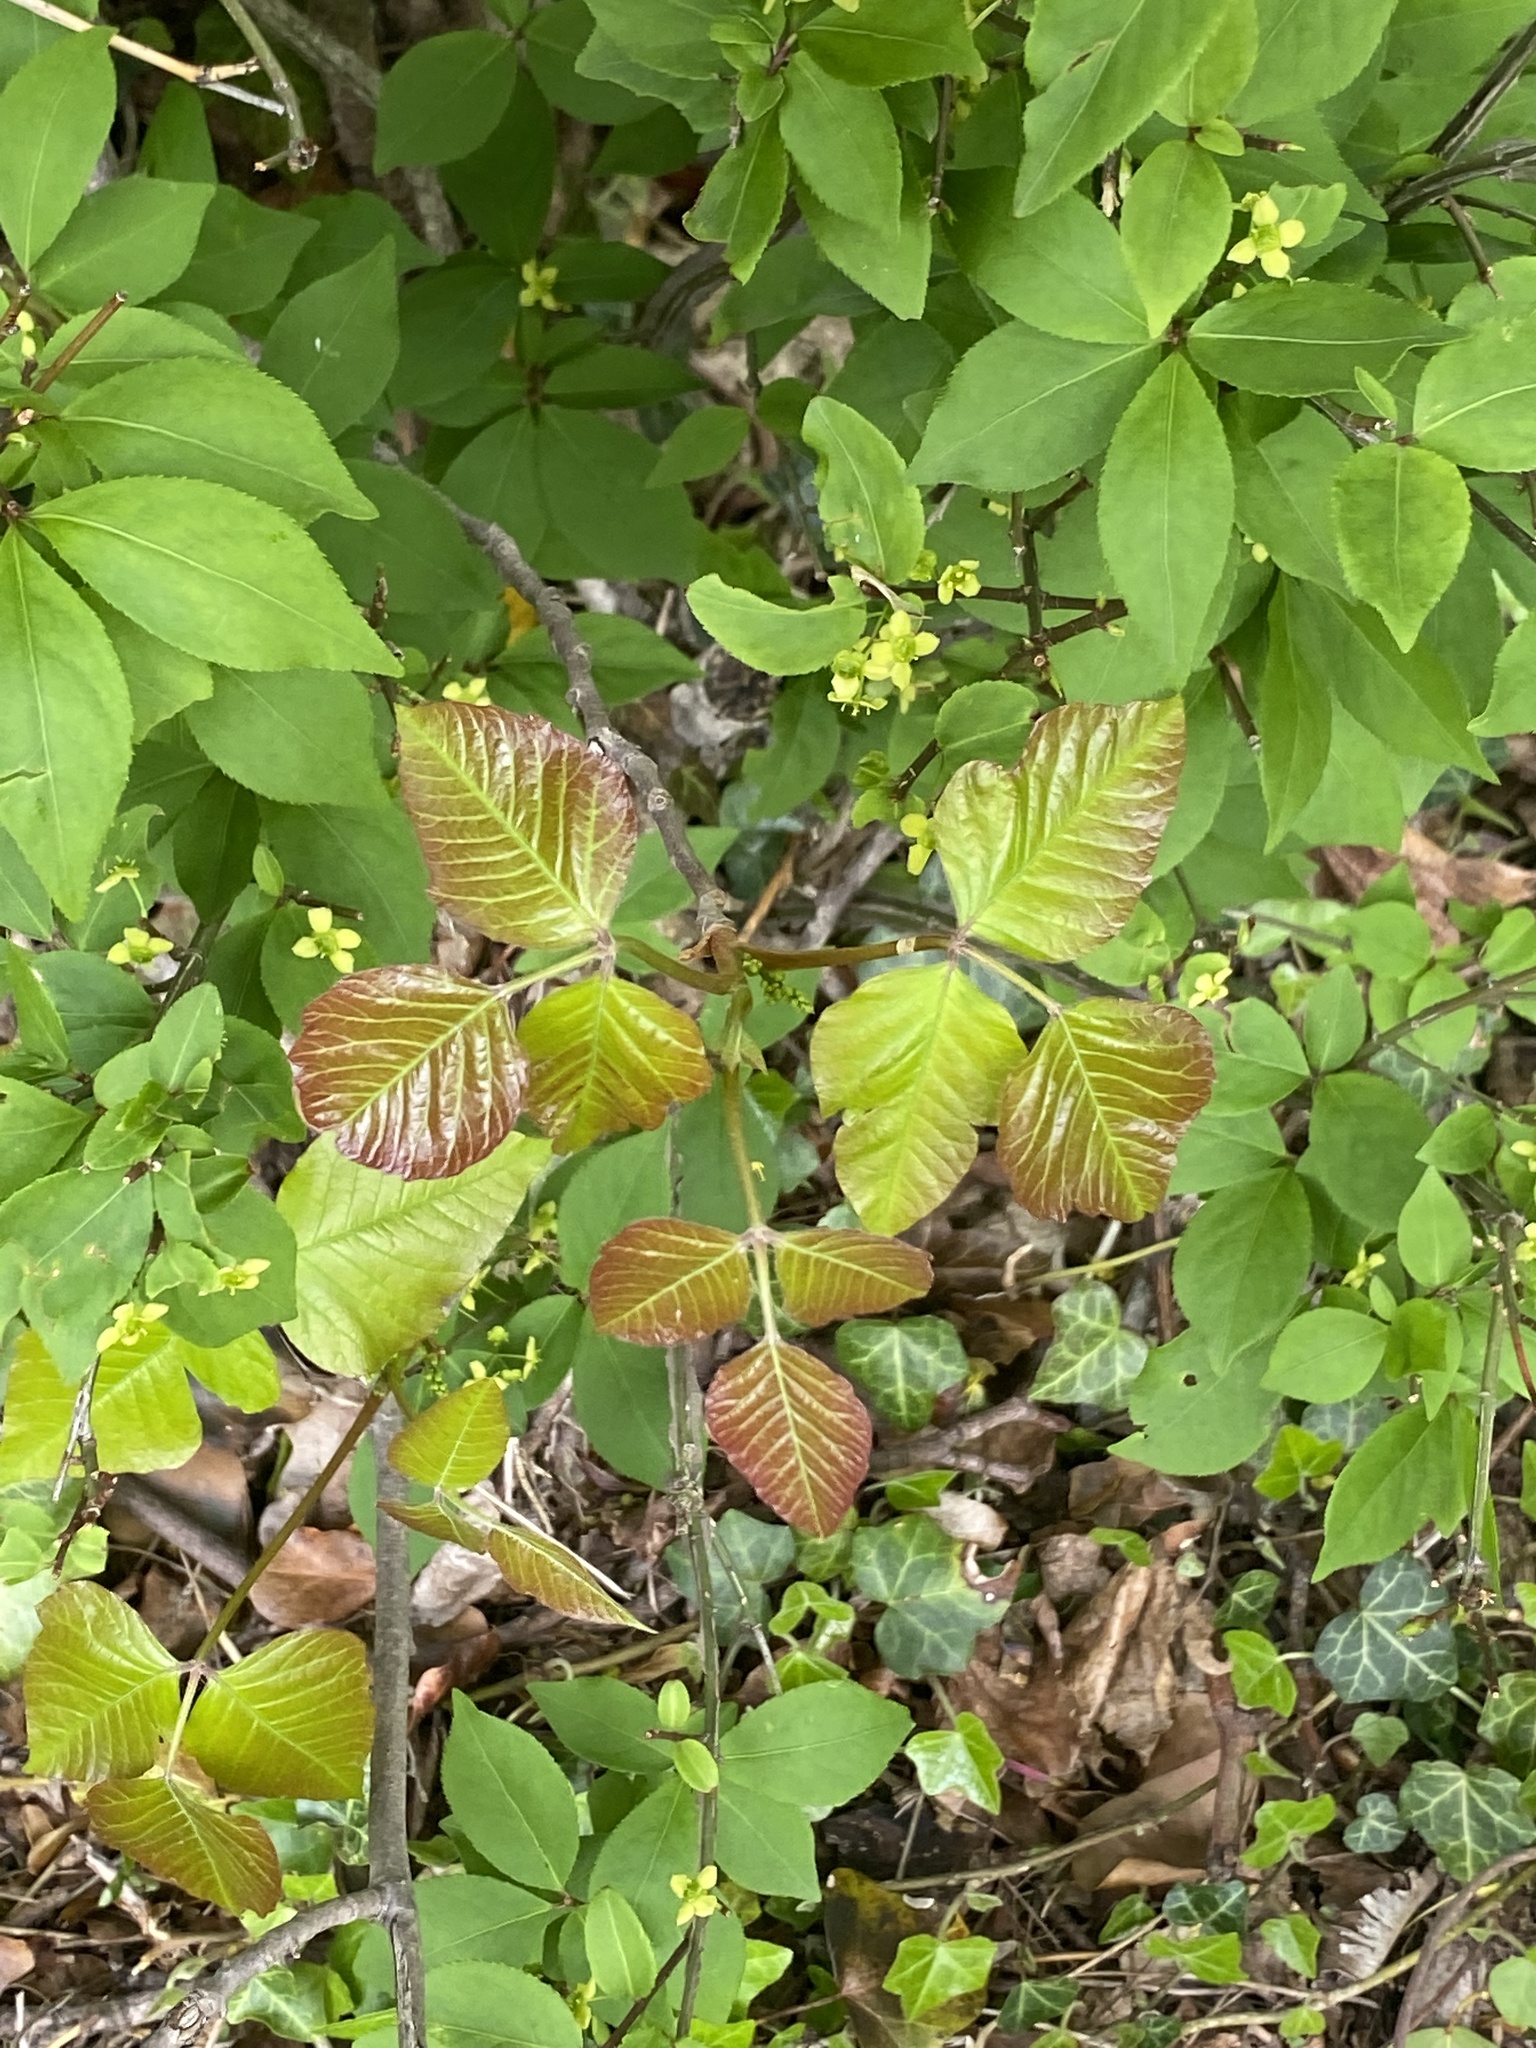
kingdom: Plantae
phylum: Tracheophyta
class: Magnoliopsida
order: Sapindales
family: Anacardiaceae
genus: Toxicodendron
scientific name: Toxicodendron radicans
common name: Poison ivy
